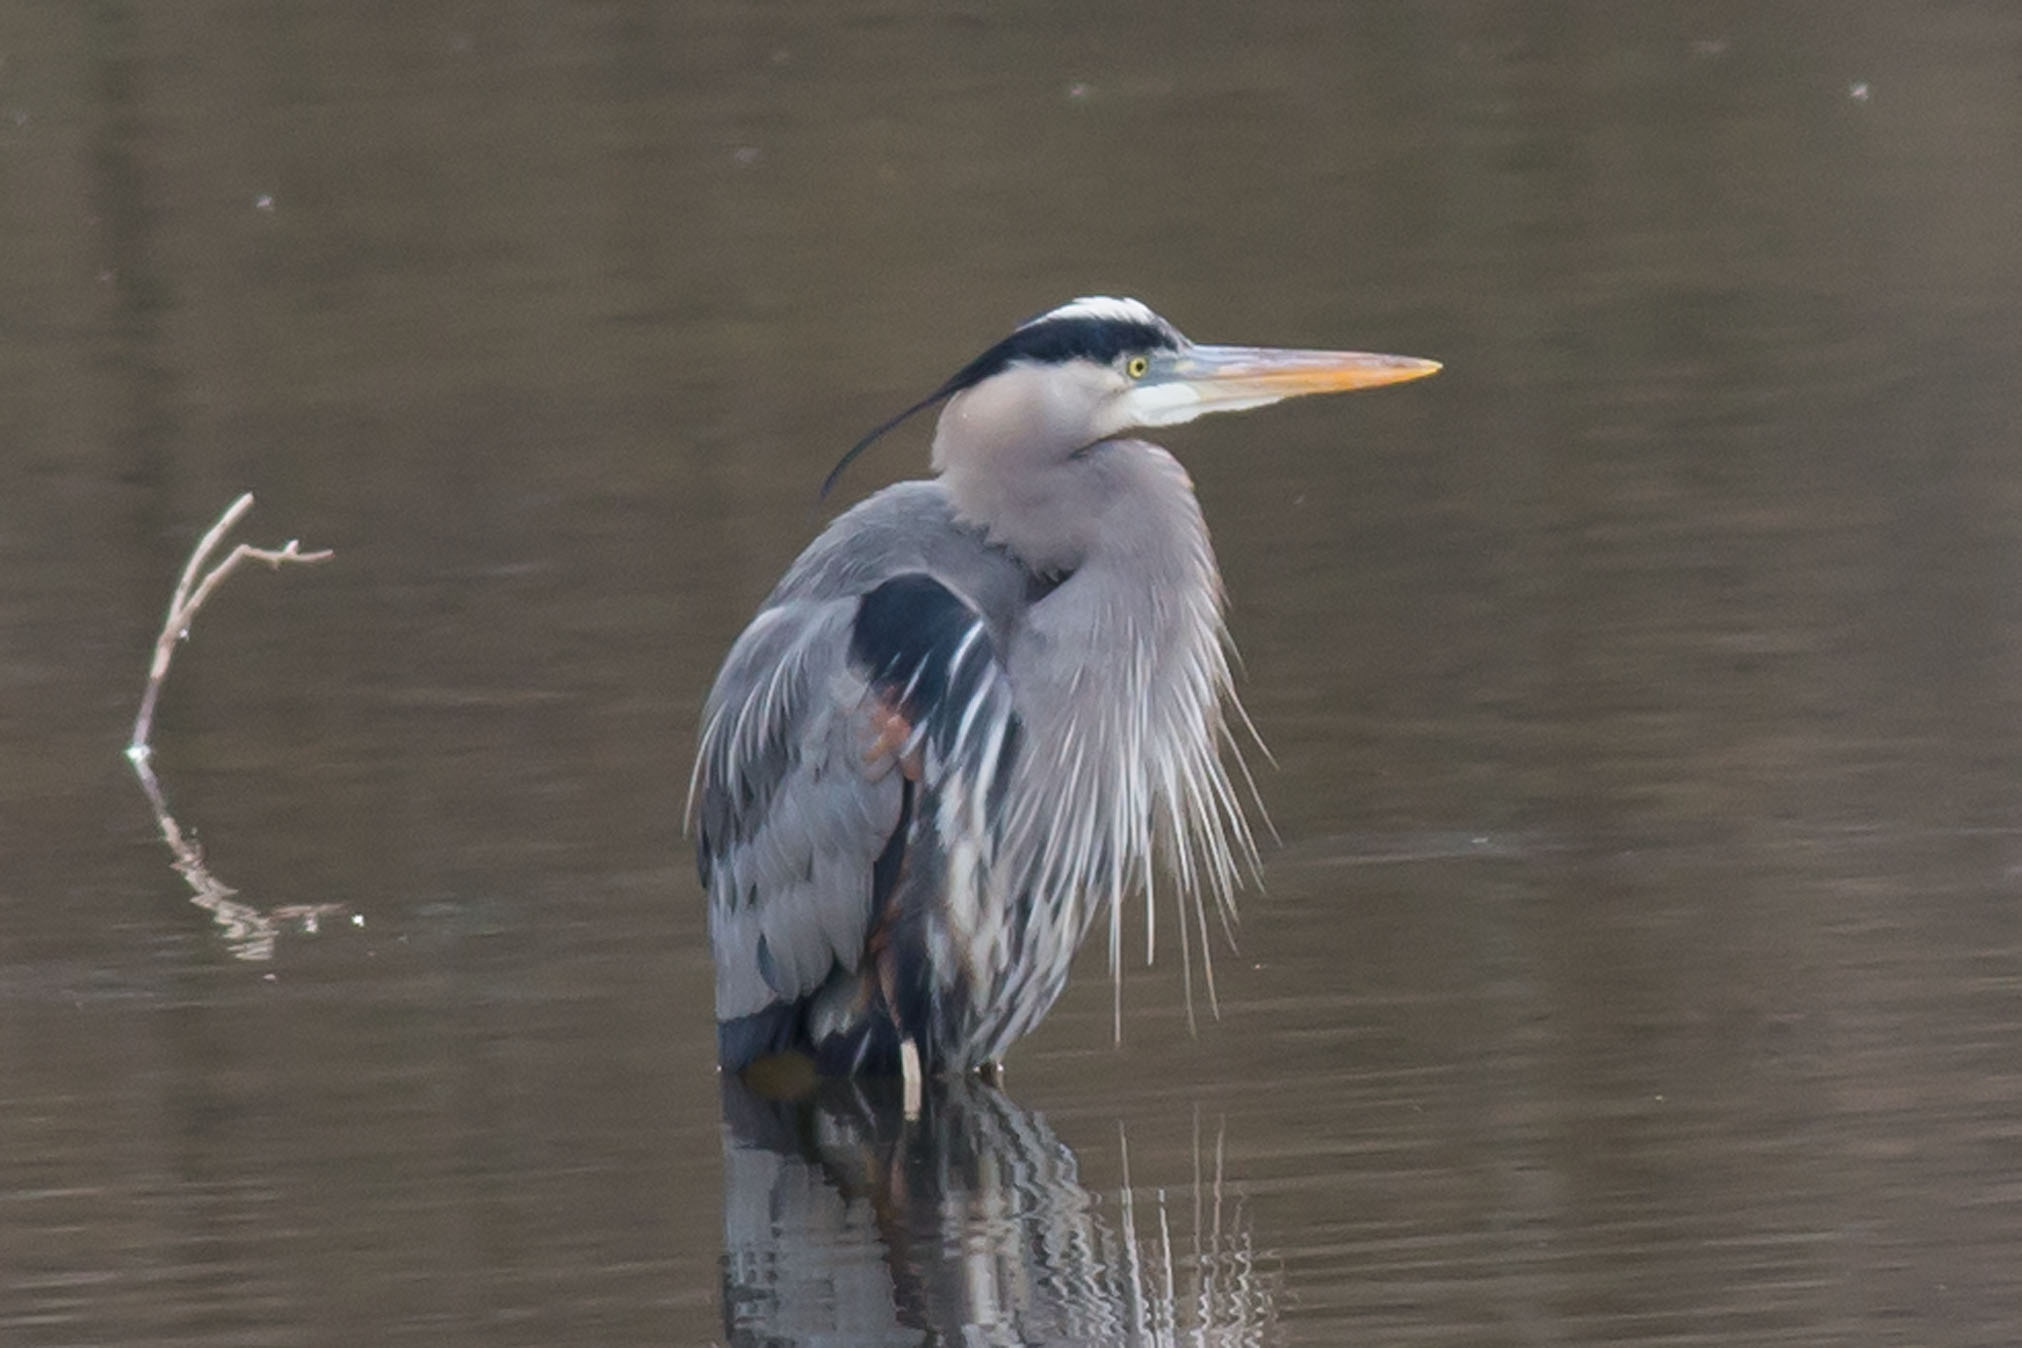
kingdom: Animalia
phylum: Chordata
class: Aves
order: Pelecaniformes
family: Ardeidae
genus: Ardea
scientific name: Ardea herodias
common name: Great blue heron
